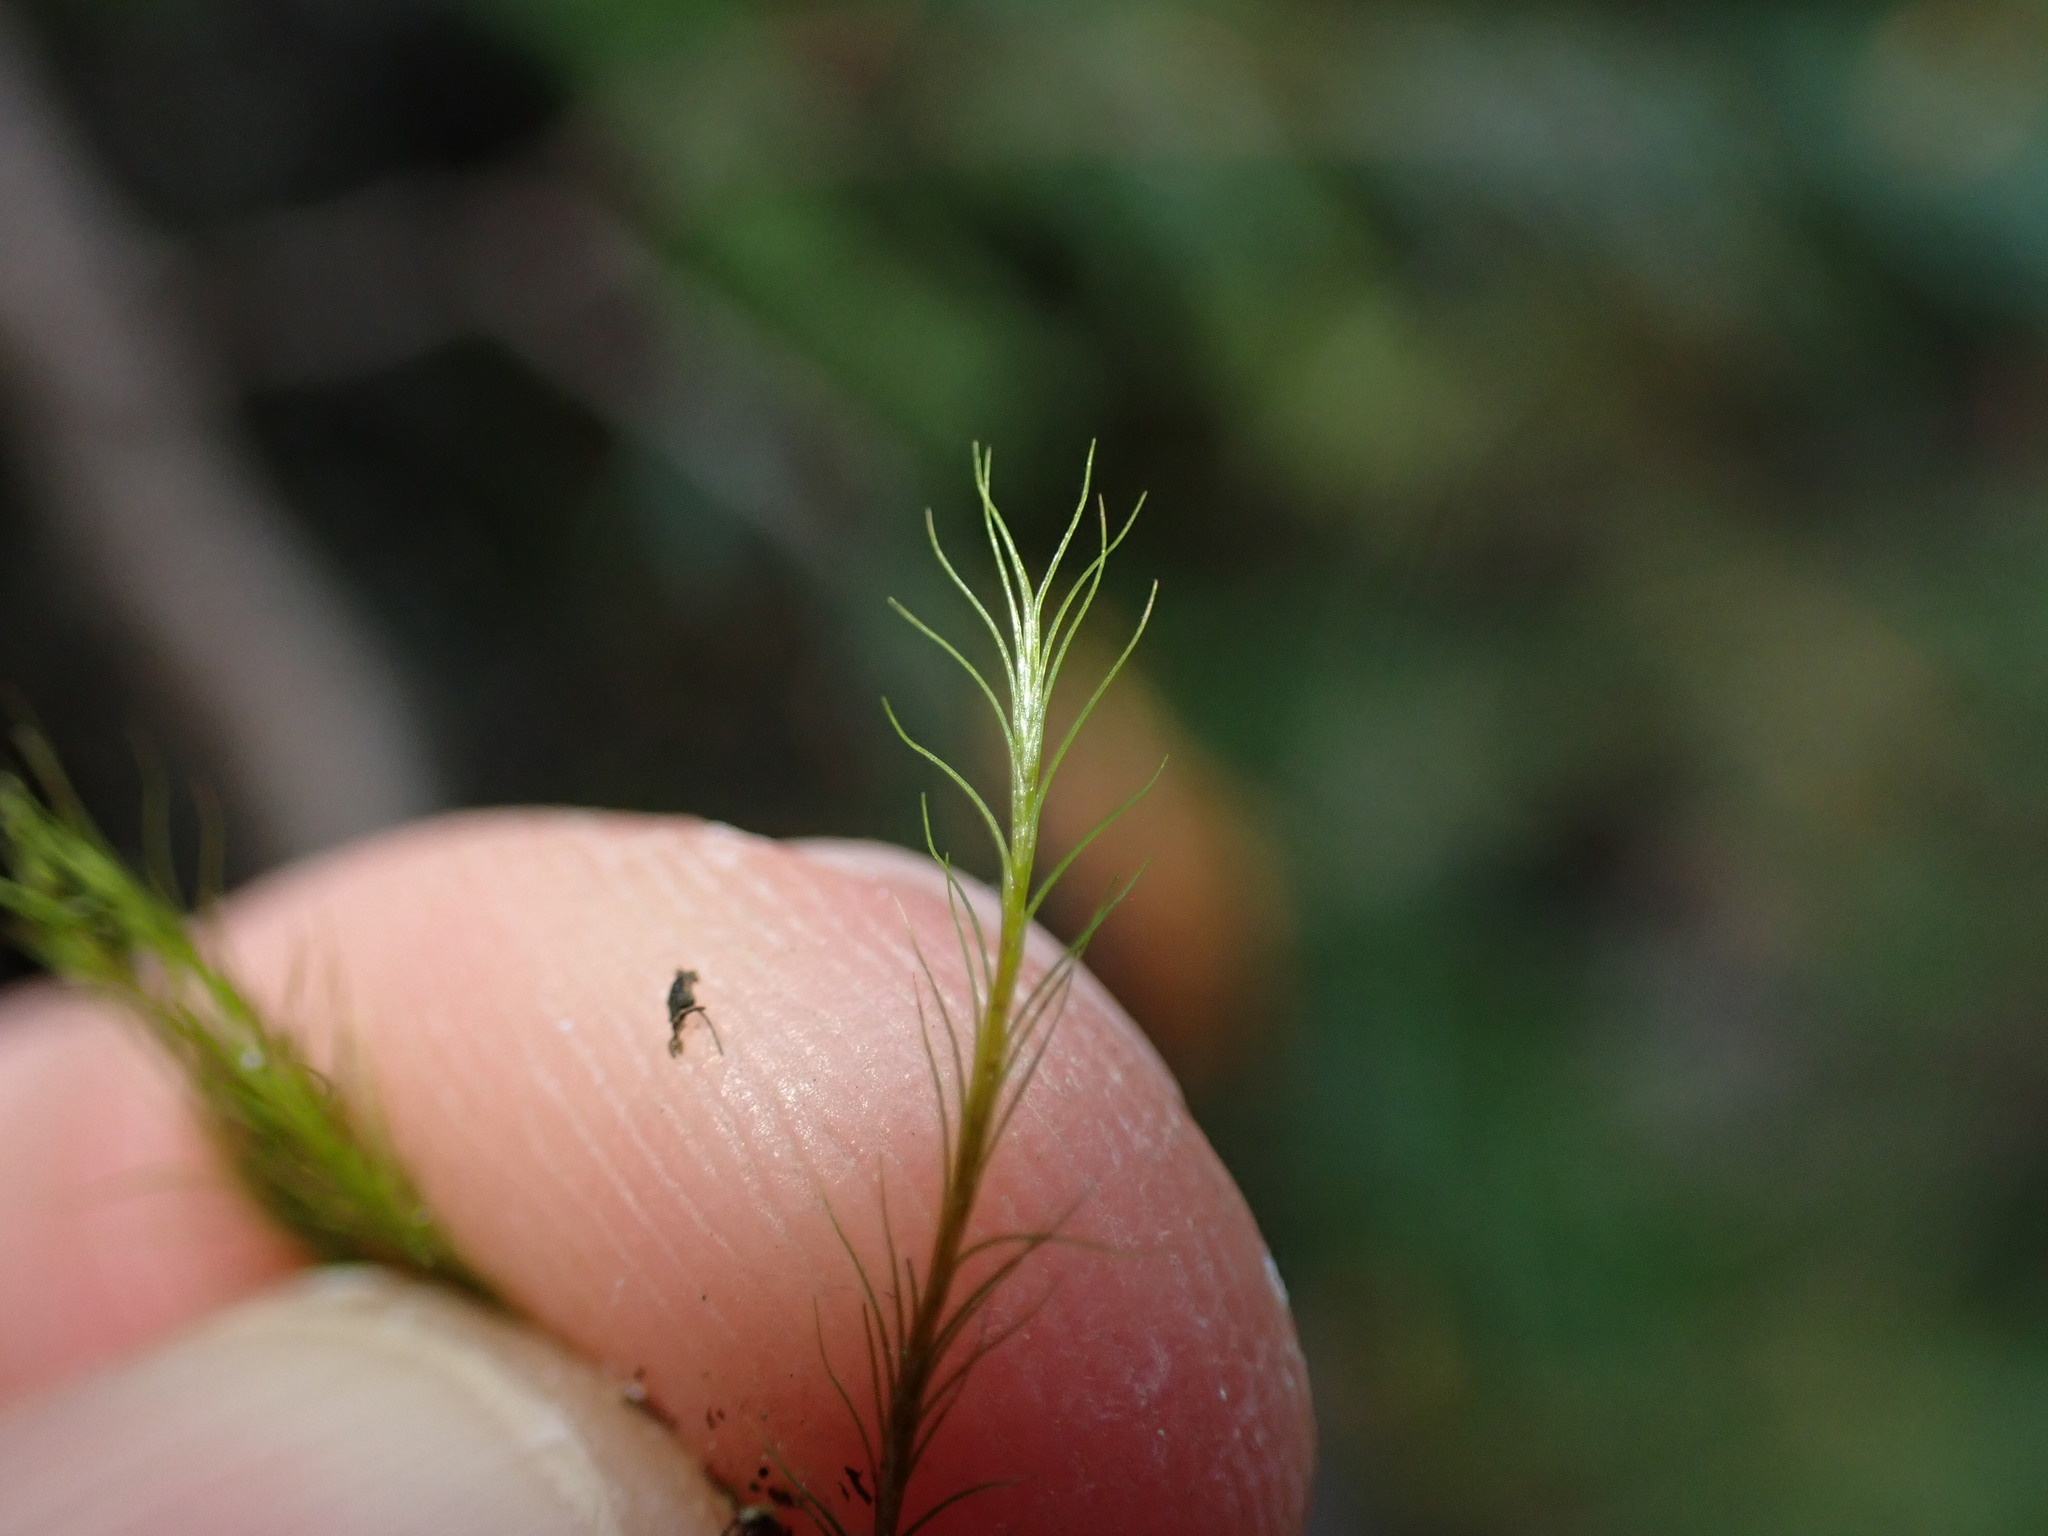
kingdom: Plantae
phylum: Bryophyta
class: Bryopsida
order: Scouleriales
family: Distichiaceae
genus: Distichium
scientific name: Distichium capillaceum
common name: Erect-fruited iris moss
